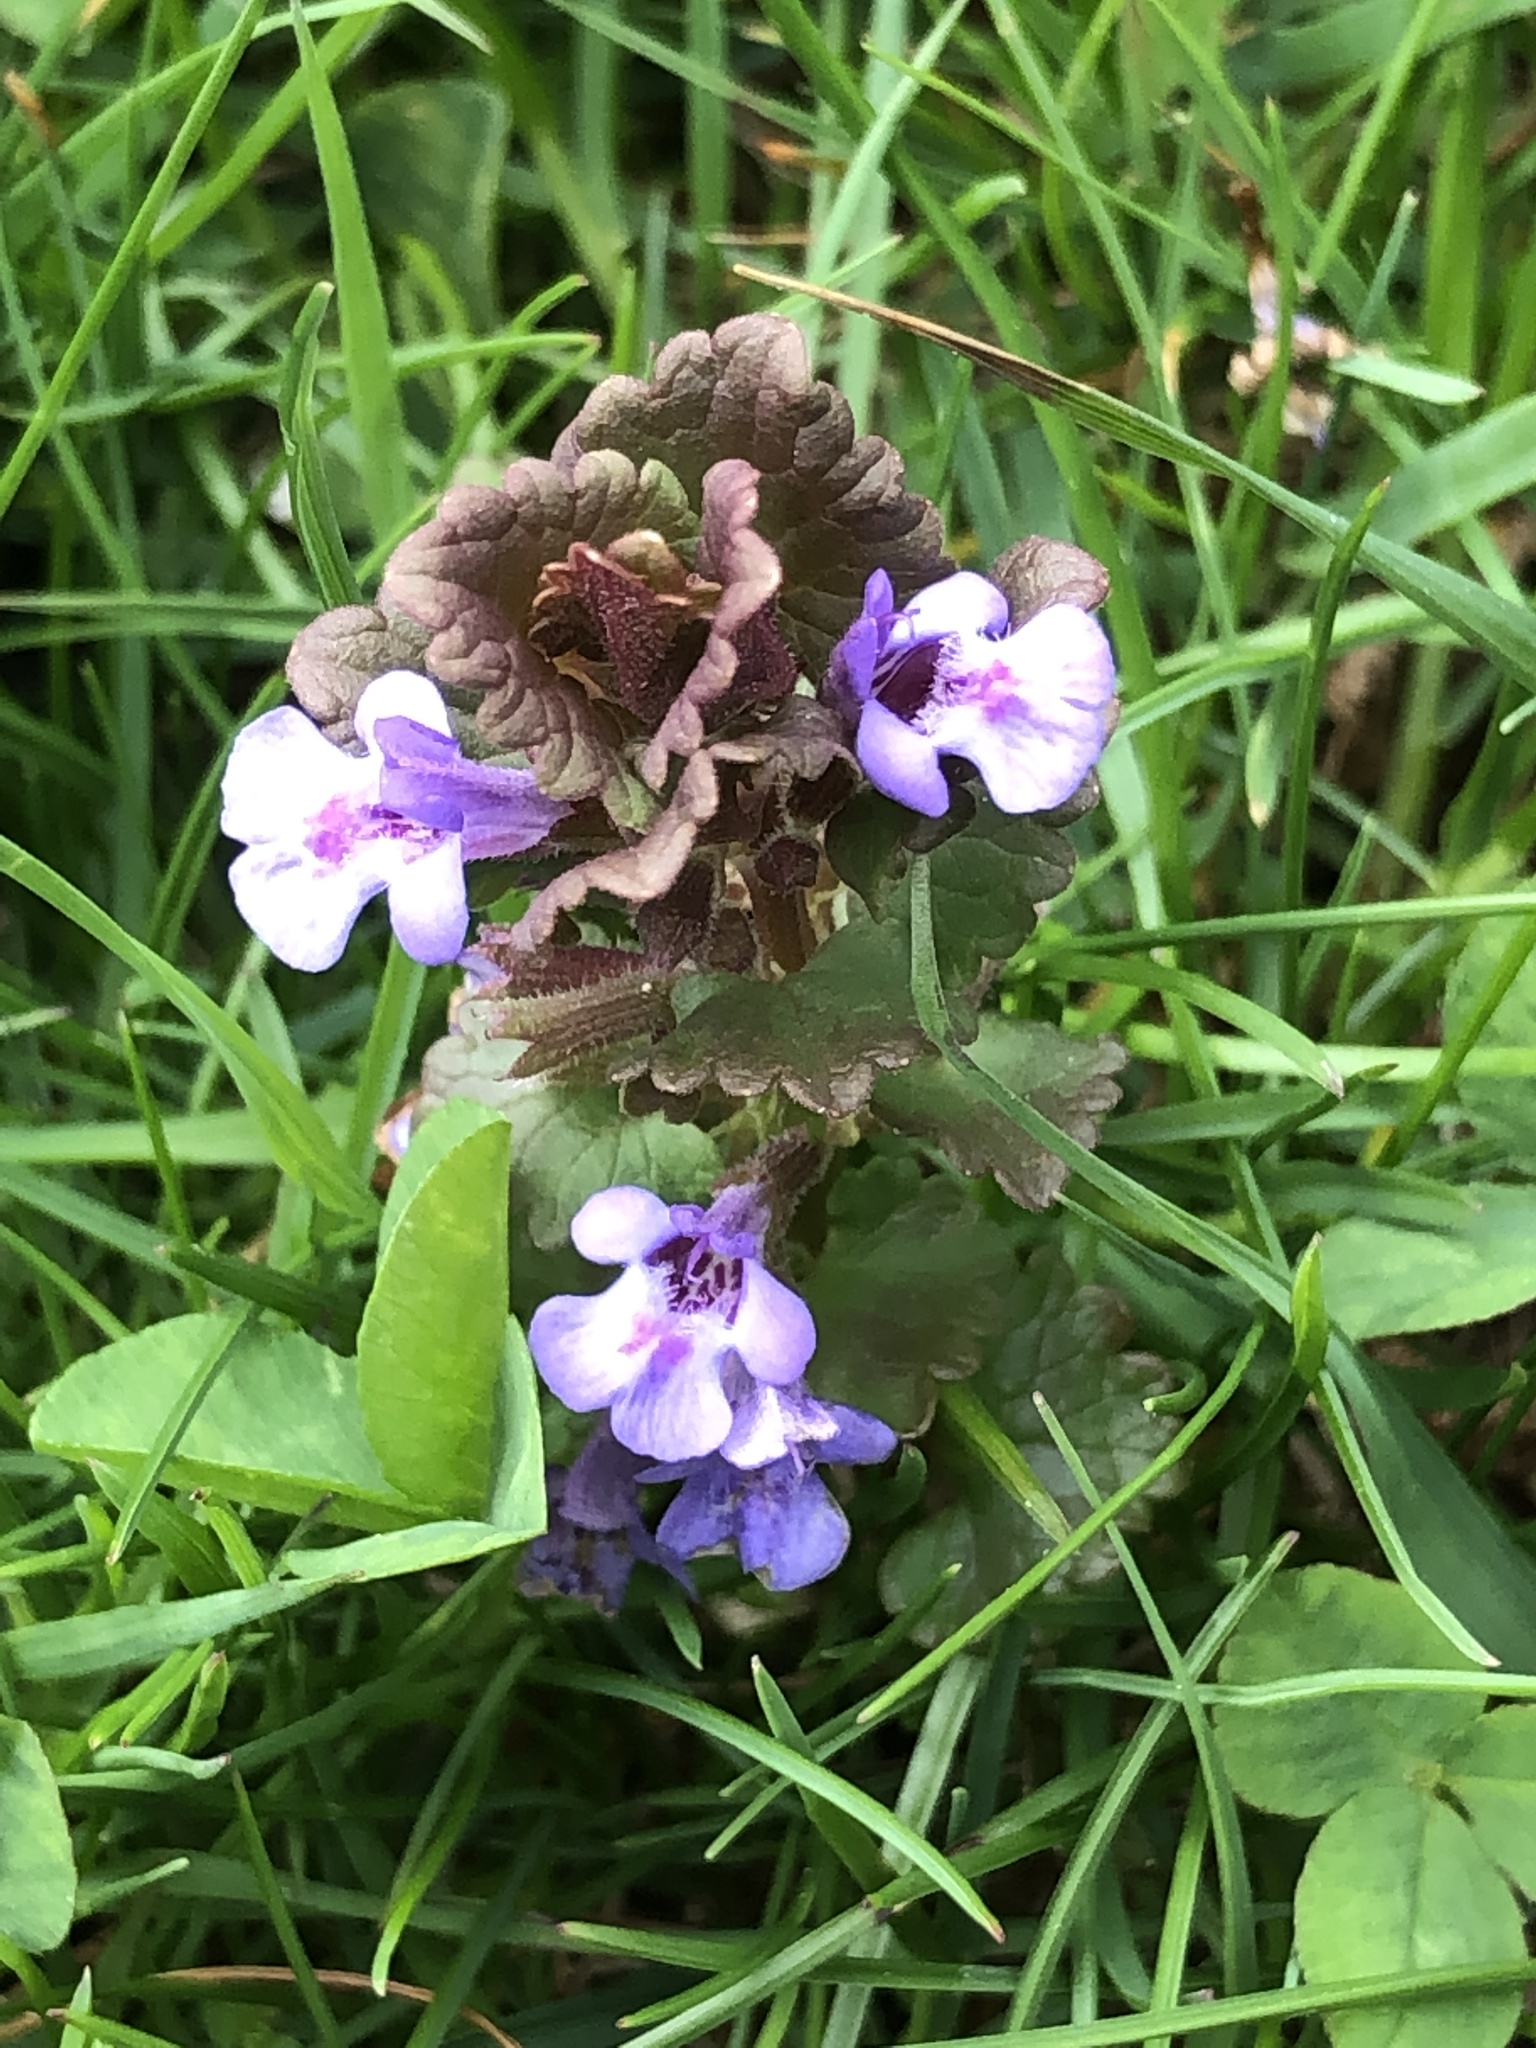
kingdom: Plantae
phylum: Tracheophyta
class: Magnoliopsida
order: Lamiales
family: Lamiaceae
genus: Glechoma
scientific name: Glechoma hederacea
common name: Ground ivy
